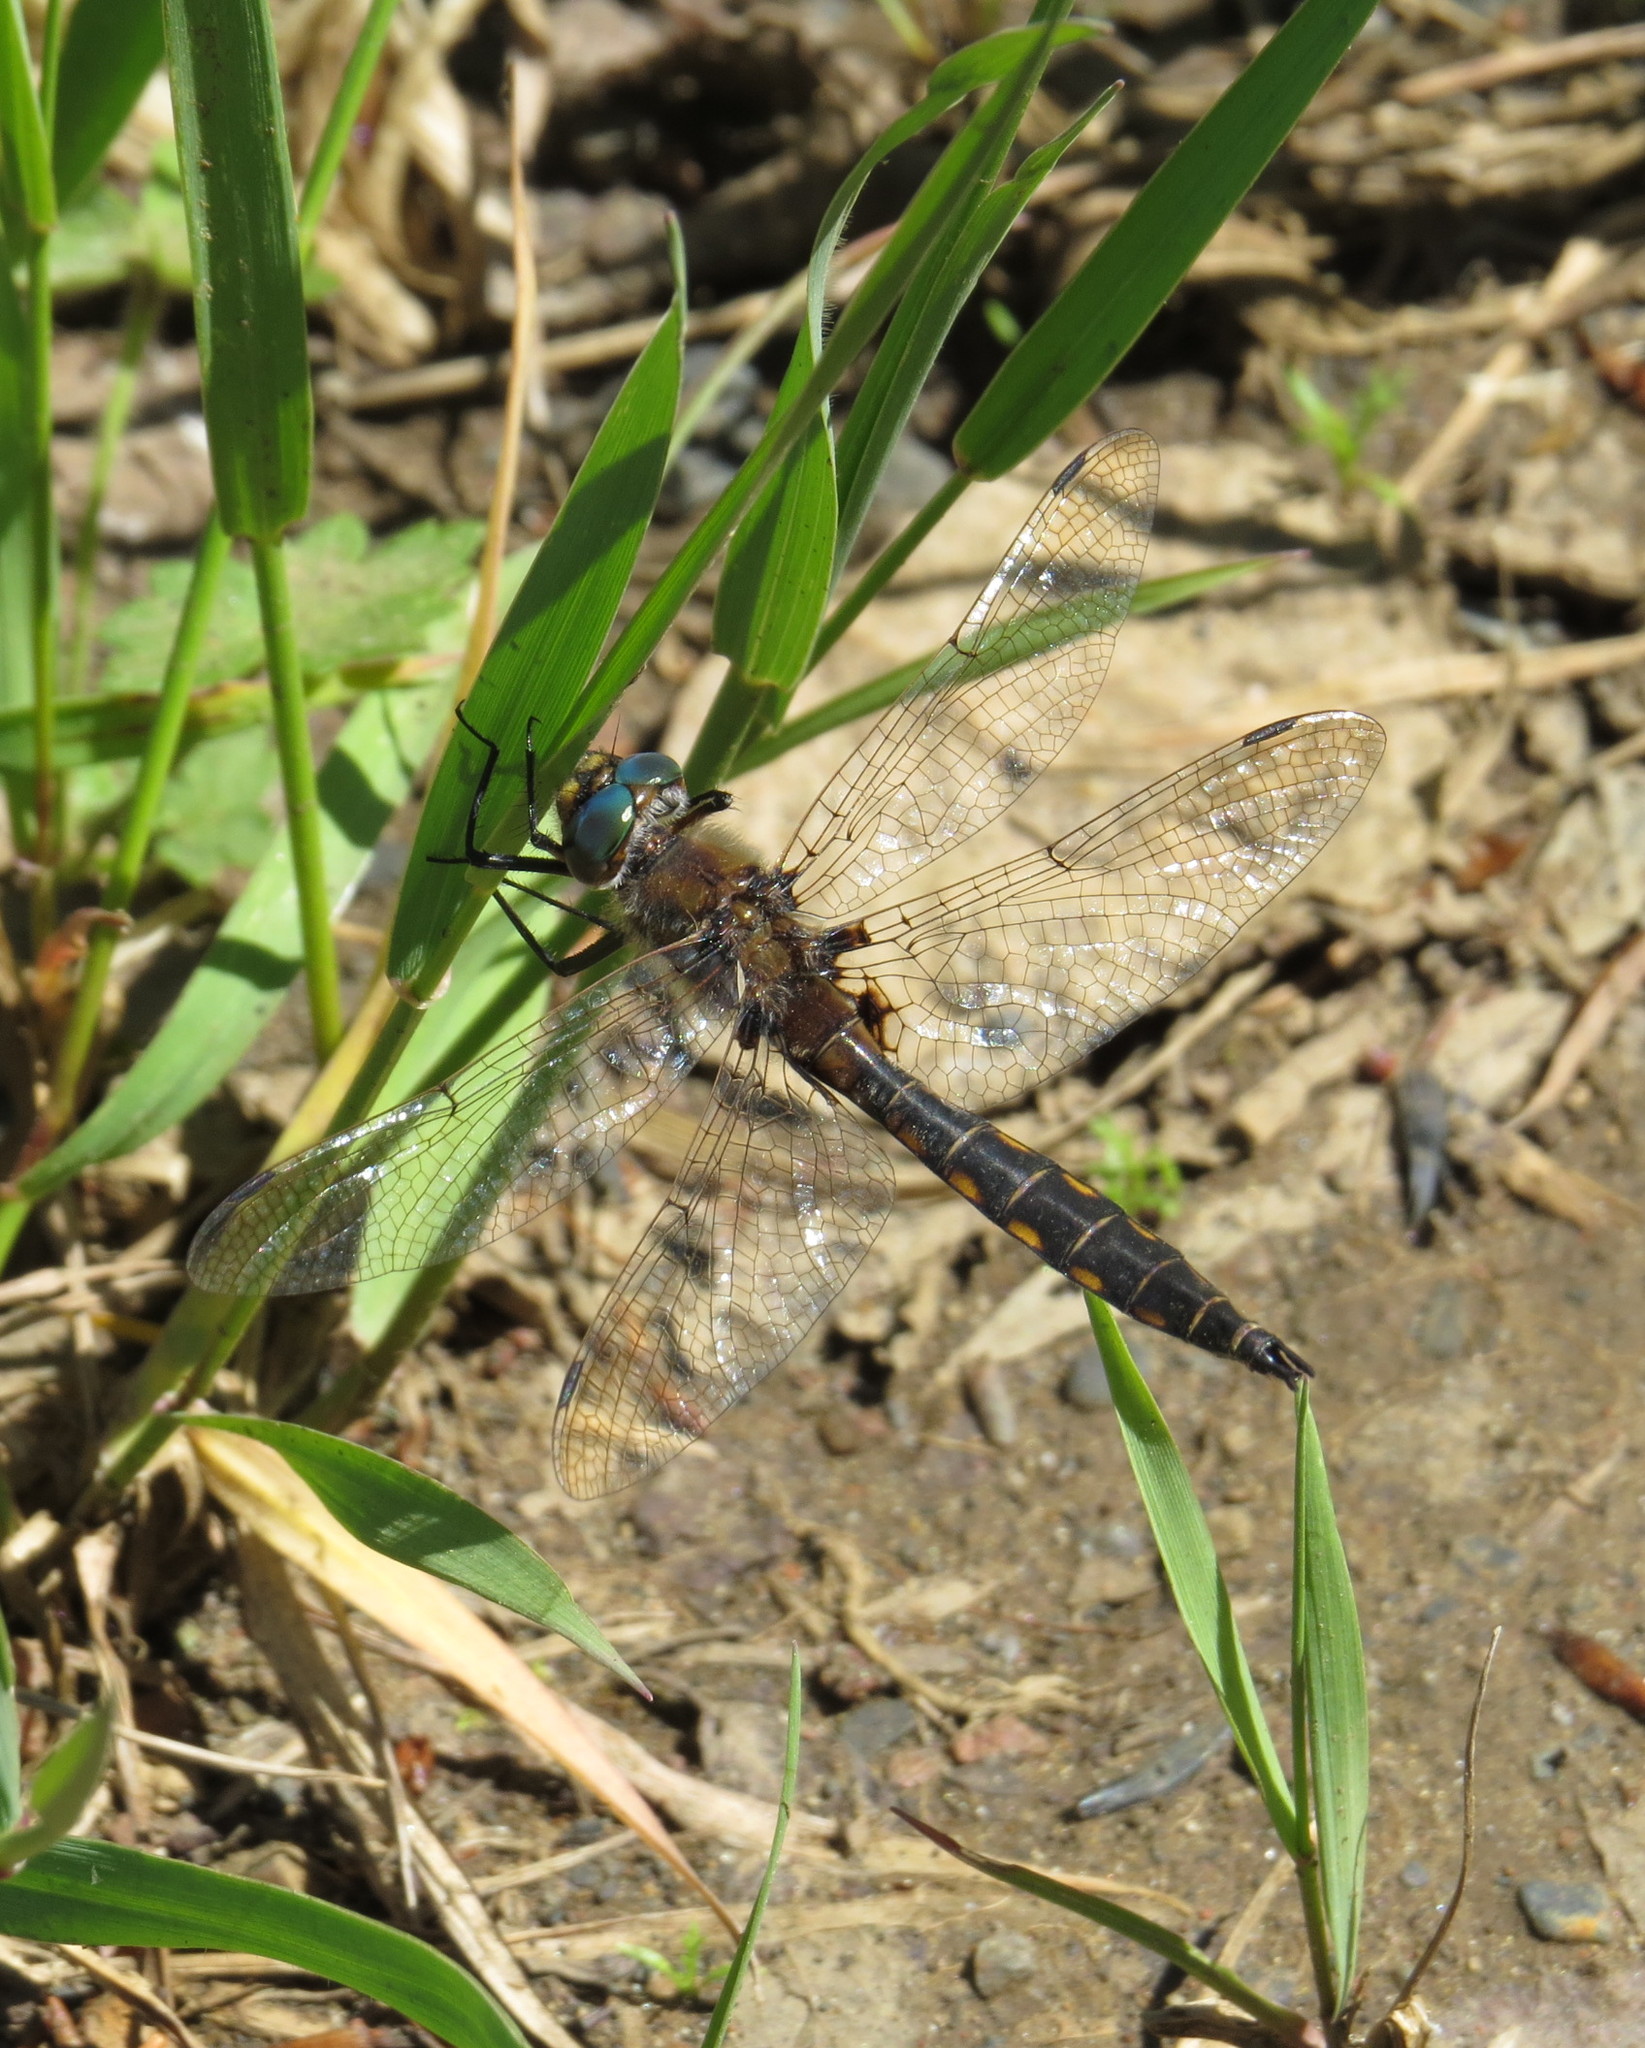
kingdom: Animalia
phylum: Arthropoda
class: Insecta
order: Odonata
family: Corduliidae
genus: Epitheca
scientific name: Epitheca canis
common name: Beaverpond baskettail
